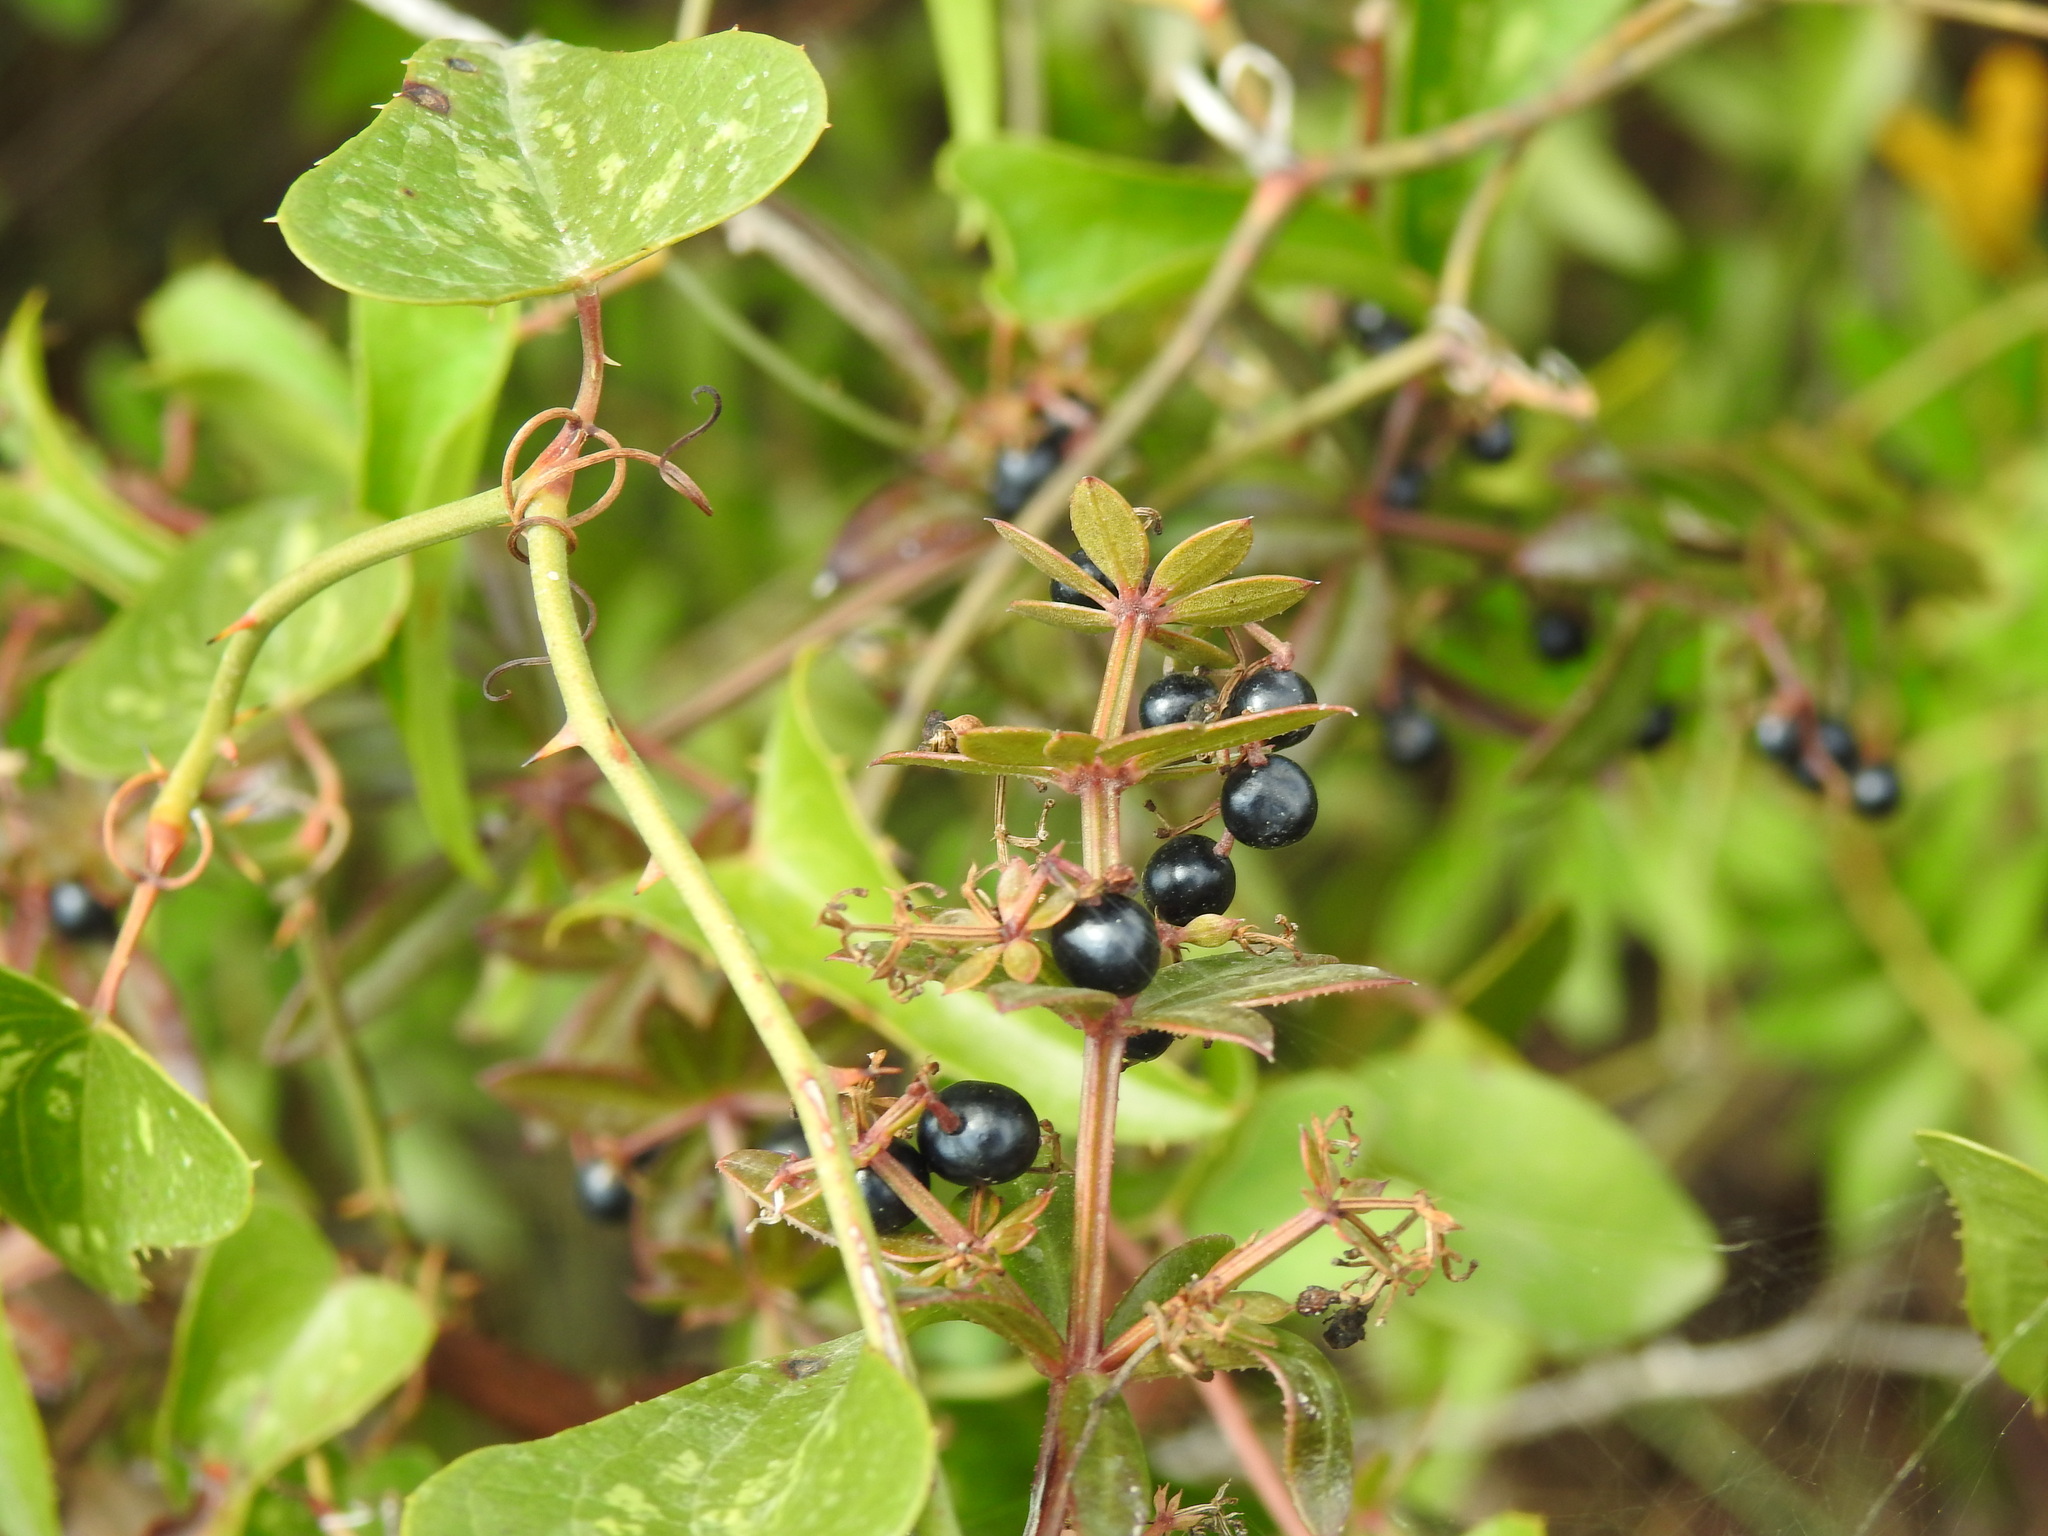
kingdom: Plantae
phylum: Tracheophyta
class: Magnoliopsida
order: Gentianales
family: Rubiaceae
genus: Rubia
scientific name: Rubia peregrina
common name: Wild madder
